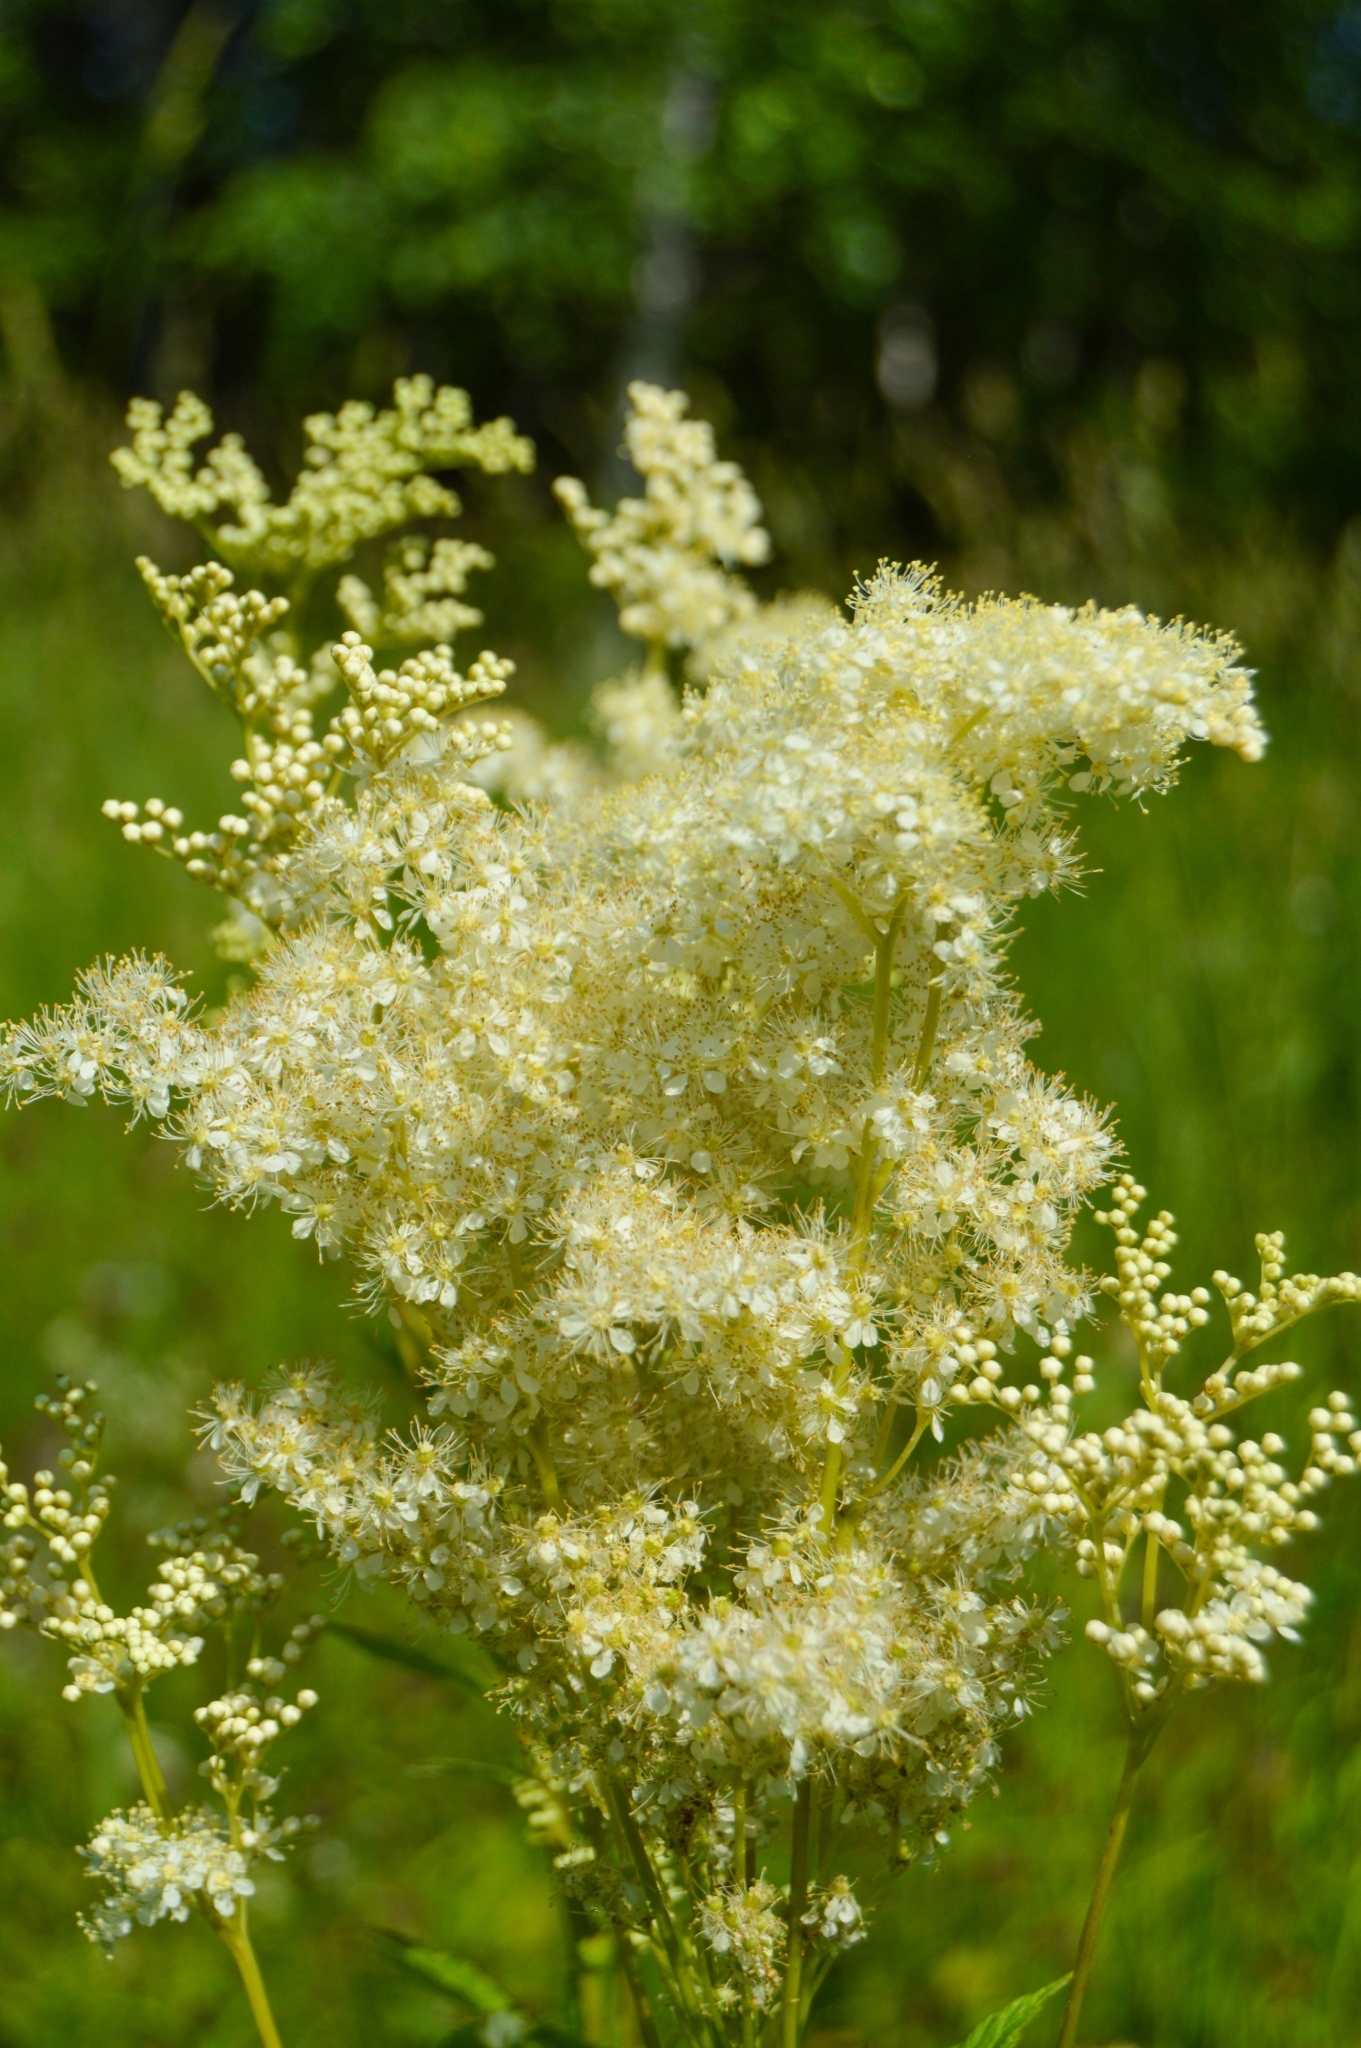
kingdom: Plantae
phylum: Tracheophyta
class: Magnoliopsida
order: Rosales
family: Rosaceae
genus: Filipendula
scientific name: Filipendula ulmaria
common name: Meadowsweet
